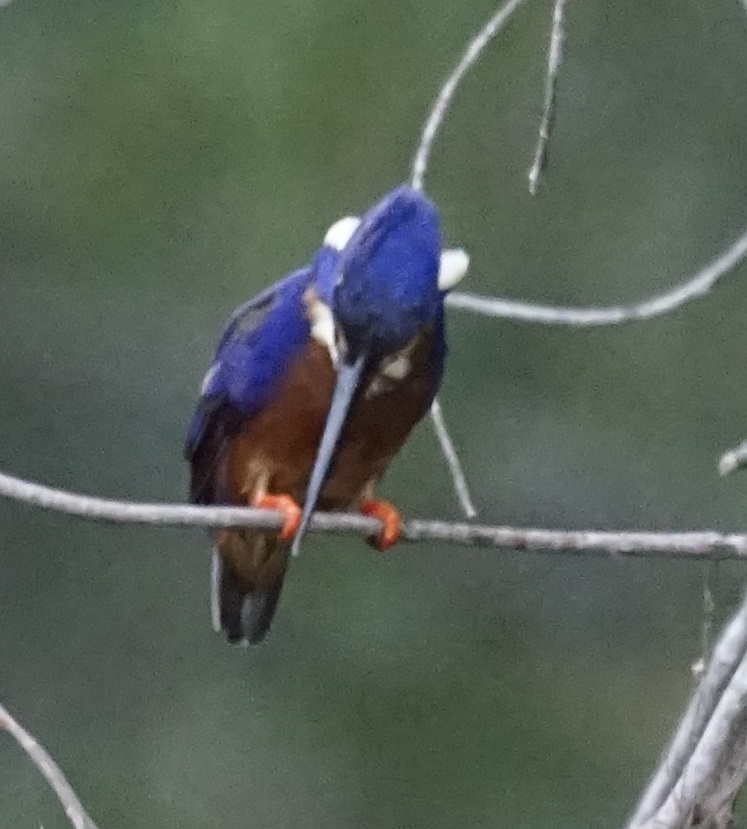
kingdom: Animalia
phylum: Chordata
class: Aves
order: Coraciiformes
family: Alcedinidae
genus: Ceyx
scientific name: Ceyx azureus
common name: Azure kingfisher
